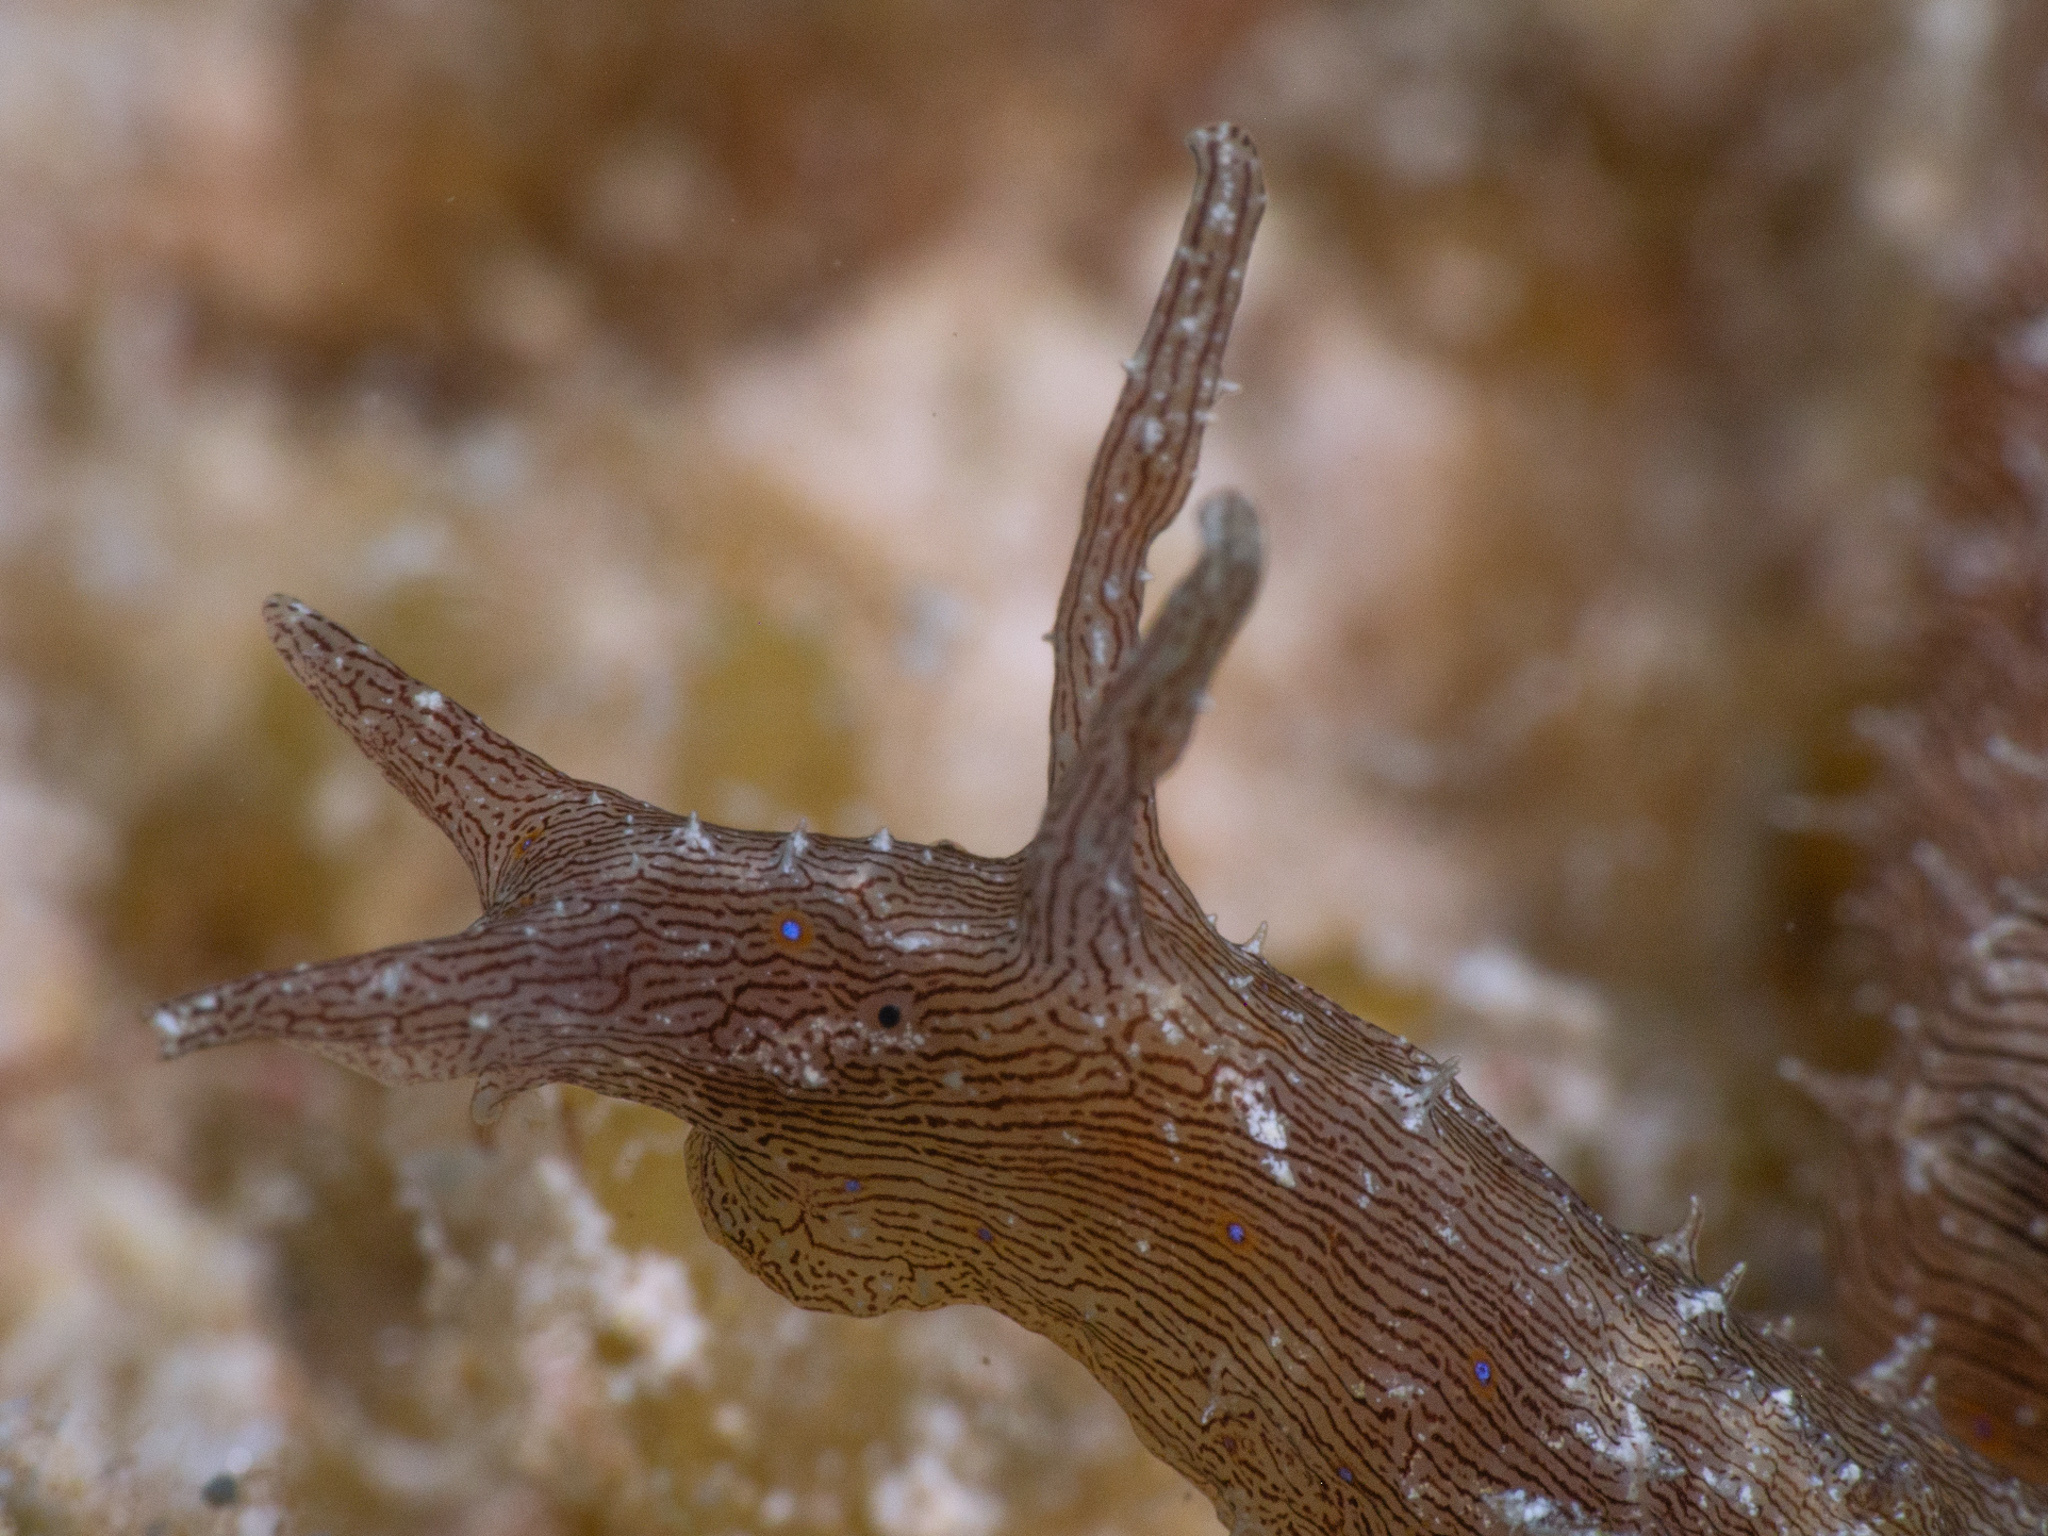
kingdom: Animalia
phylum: Mollusca
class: Gastropoda
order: Aplysiida
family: Aplysiidae
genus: Stylocheilus
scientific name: Stylocheilus polyomma
